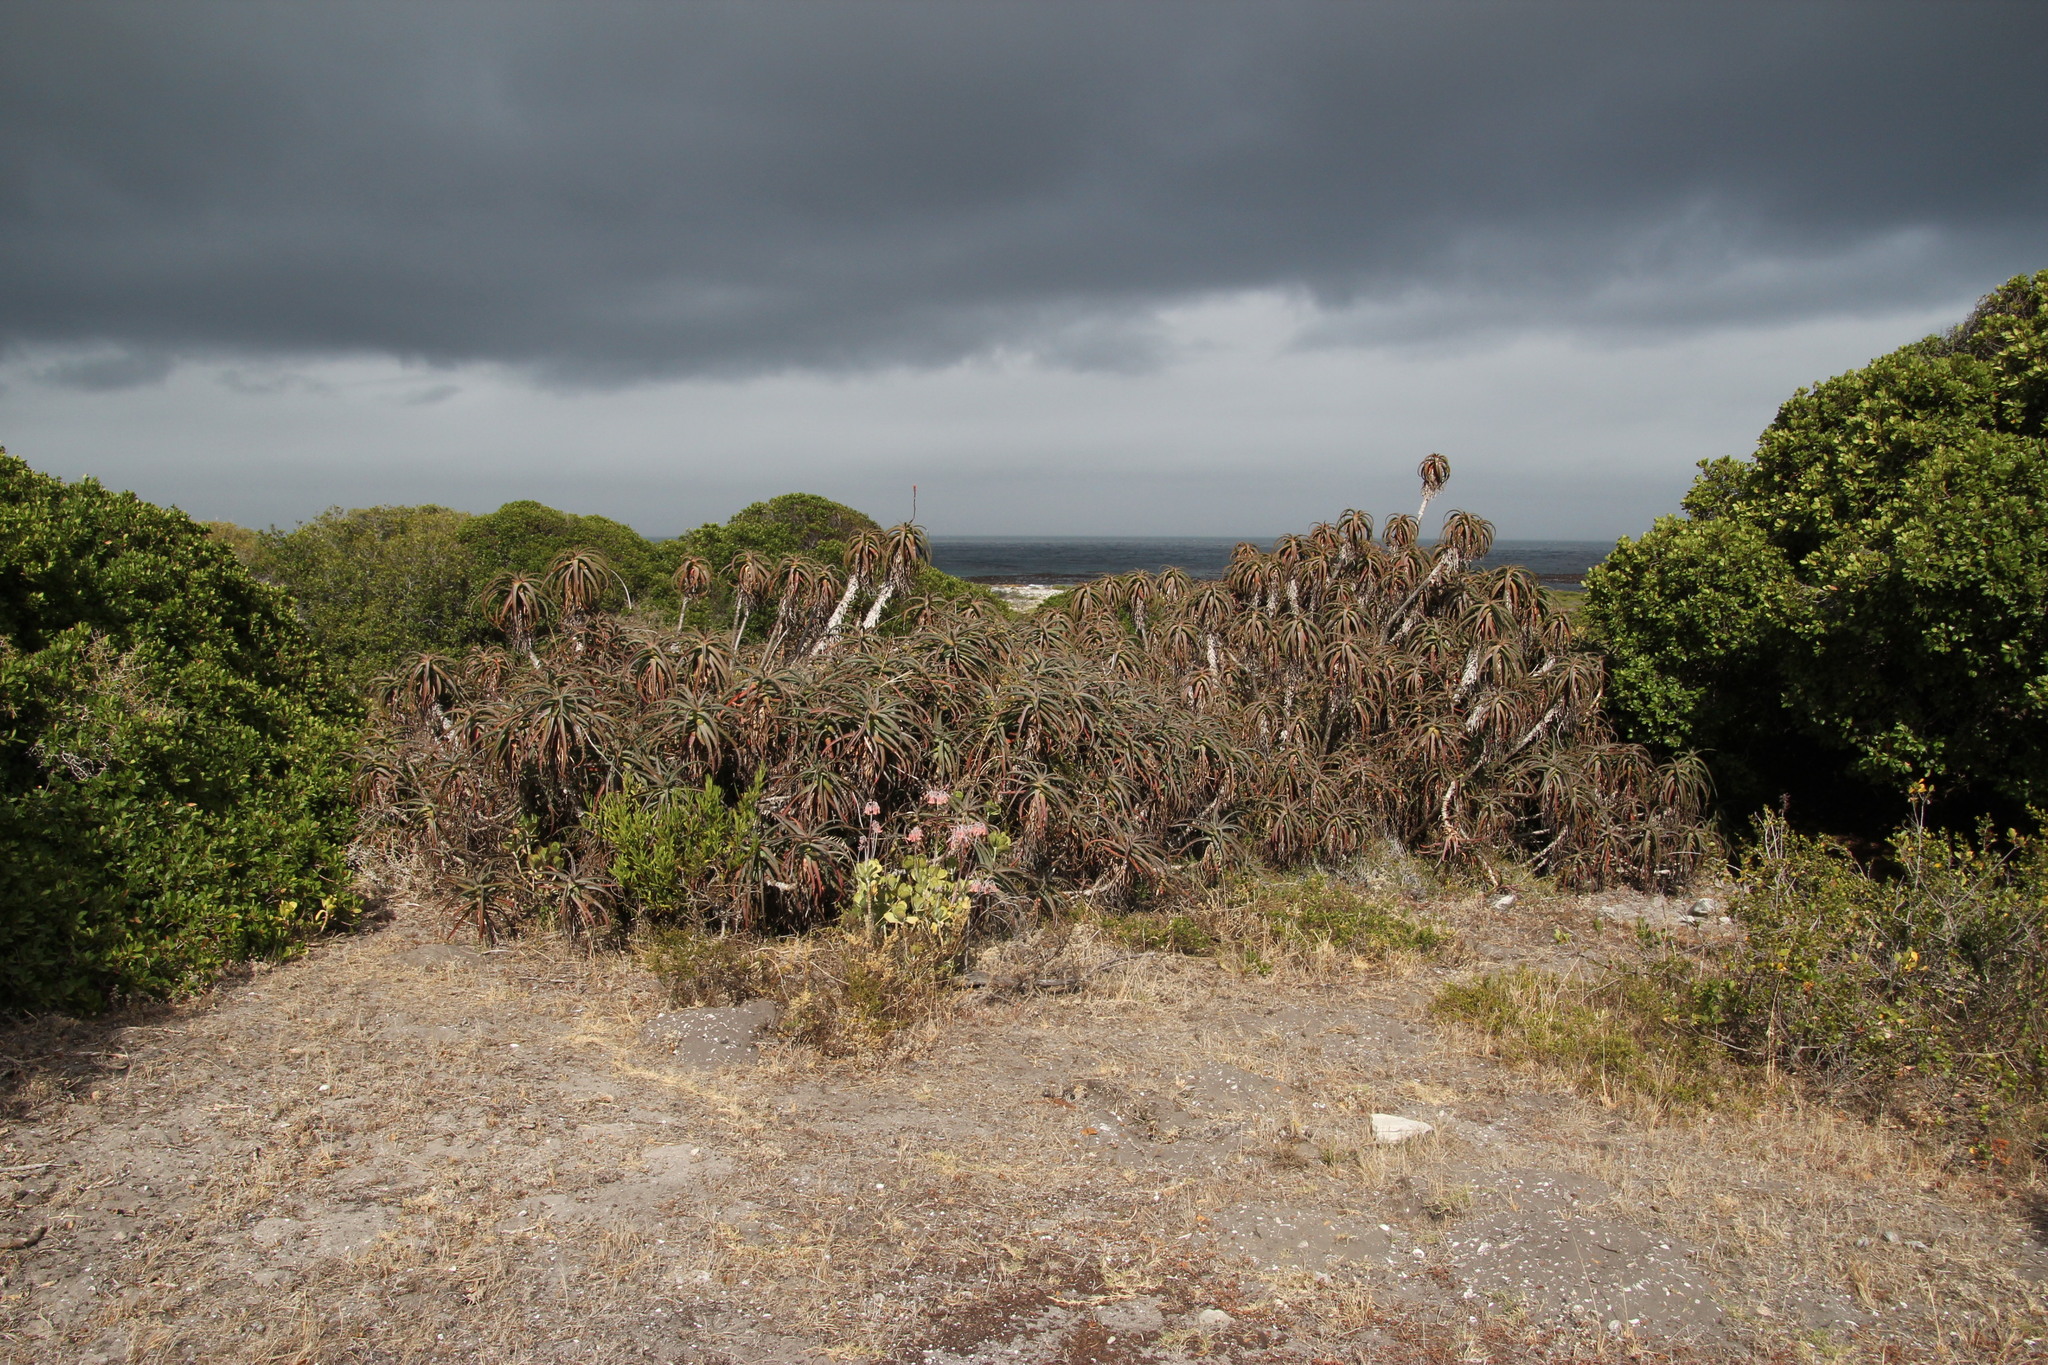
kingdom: Plantae
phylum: Tracheophyta
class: Liliopsida
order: Asparagales
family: Asphodelaceae
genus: Aloe
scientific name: Aloe arborescens
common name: Candelabra aloe
